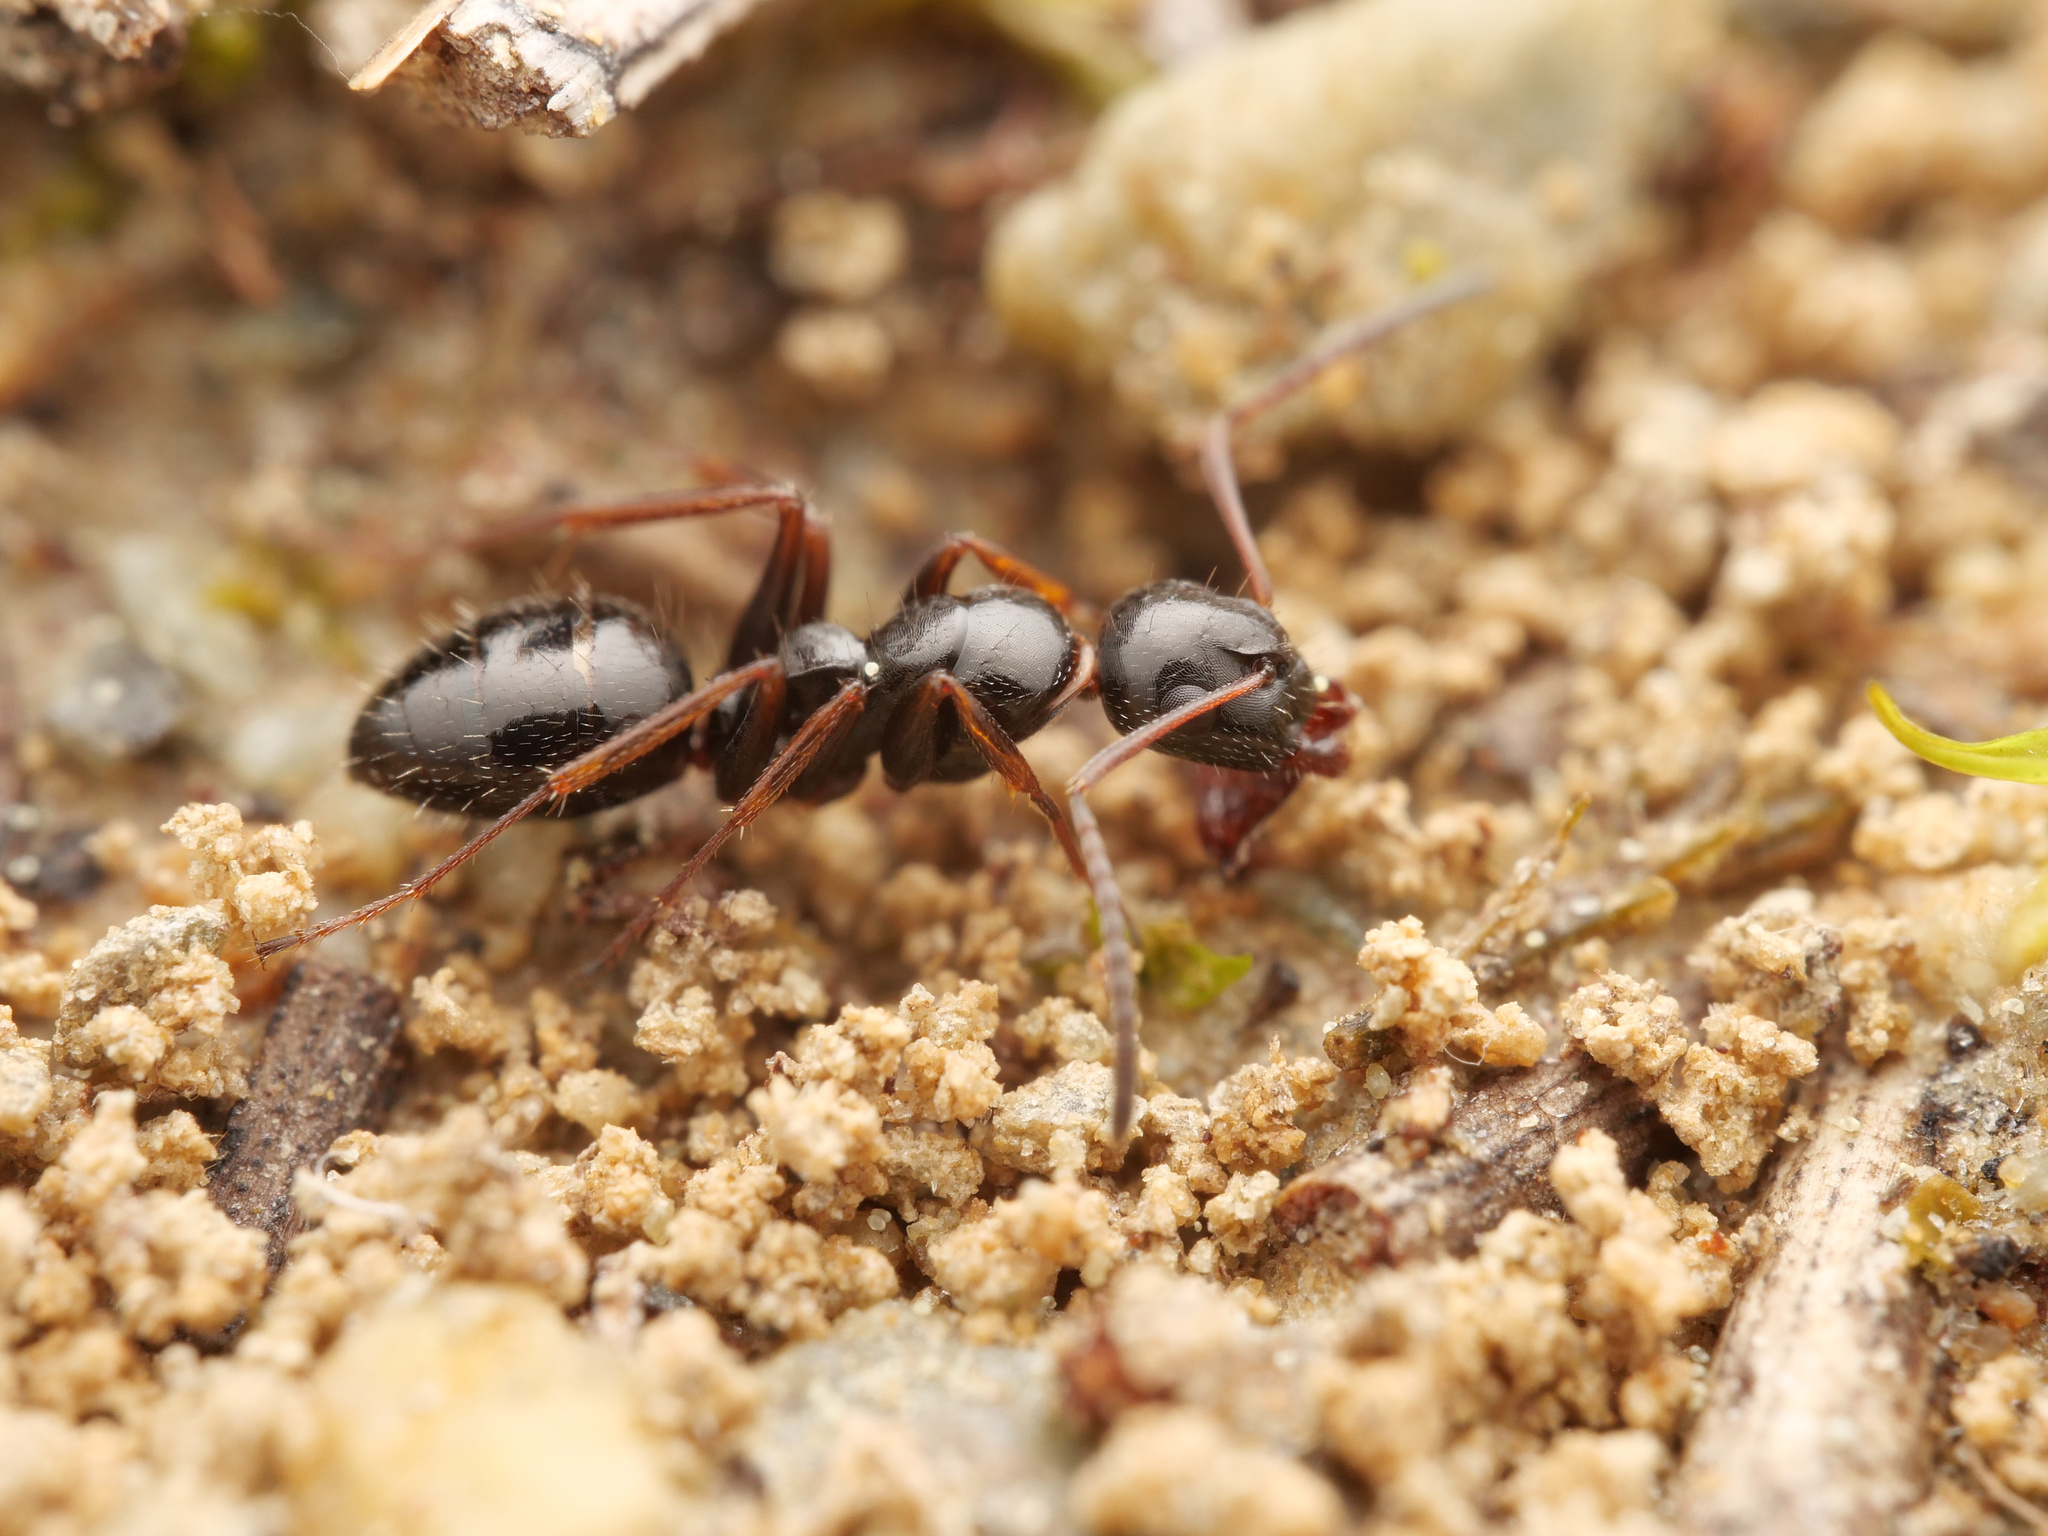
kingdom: Animalia
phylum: Arthropoda
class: Insecta
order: Hymenoptera
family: Formicidae
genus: Camponotus
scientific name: Camponotus piceus
